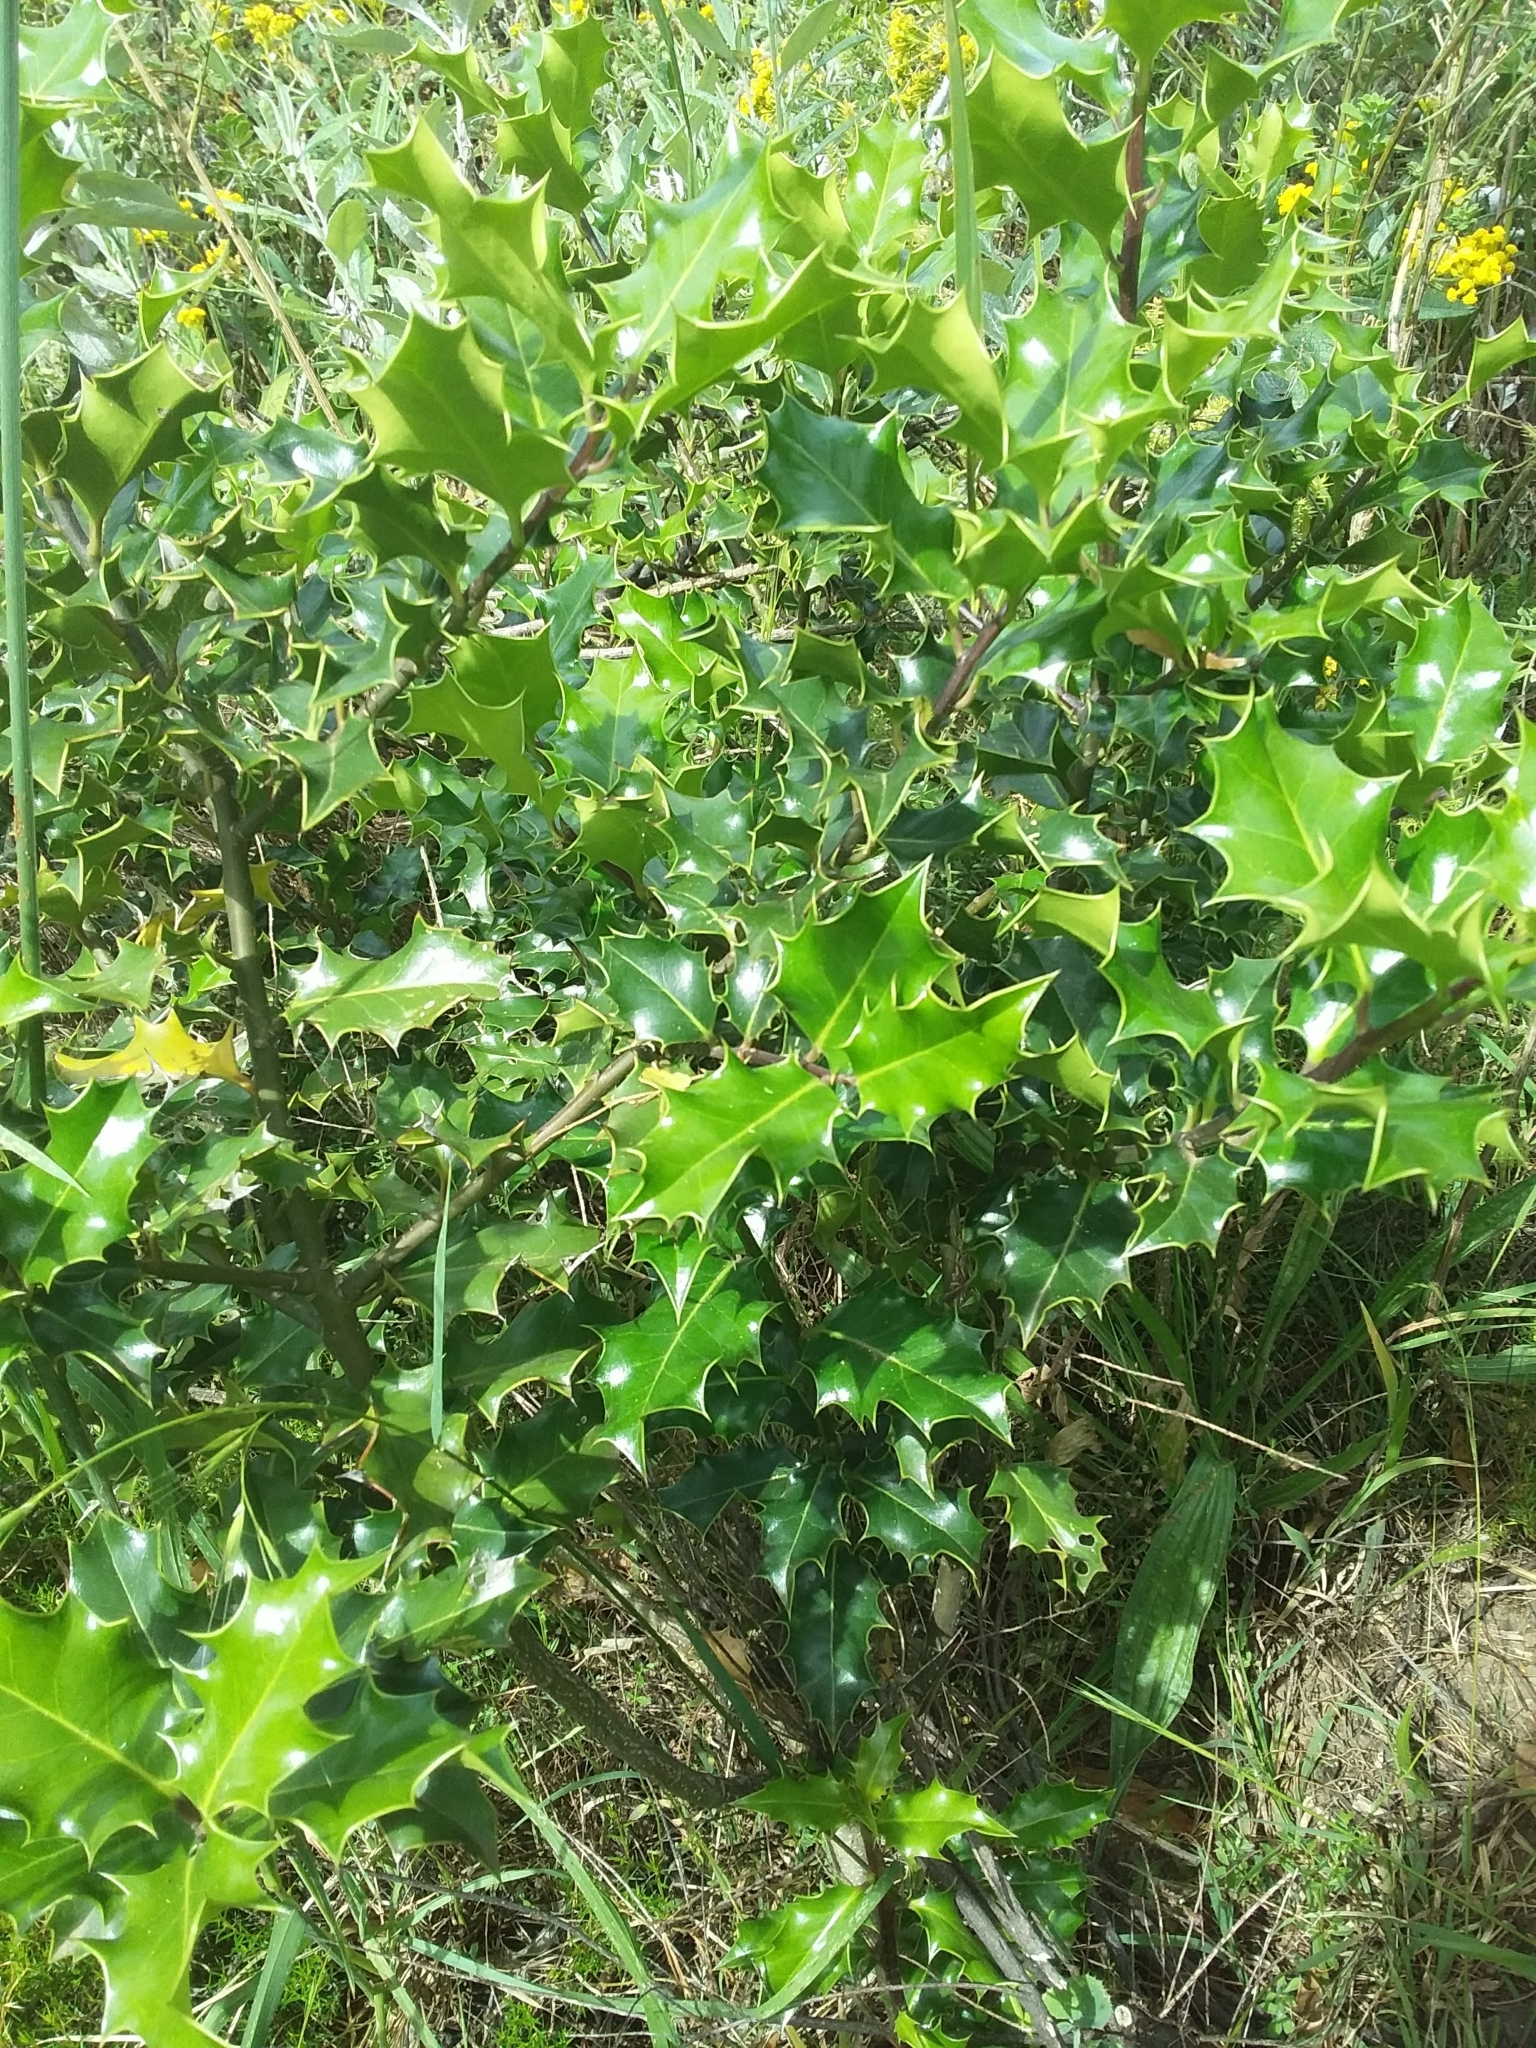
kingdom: Plantae
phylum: Tracheophyta
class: Magnoliopsida
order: Aquifoliales
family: Aquifoliaceae
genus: Ilex
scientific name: Ilex aquifolium
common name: English holly
